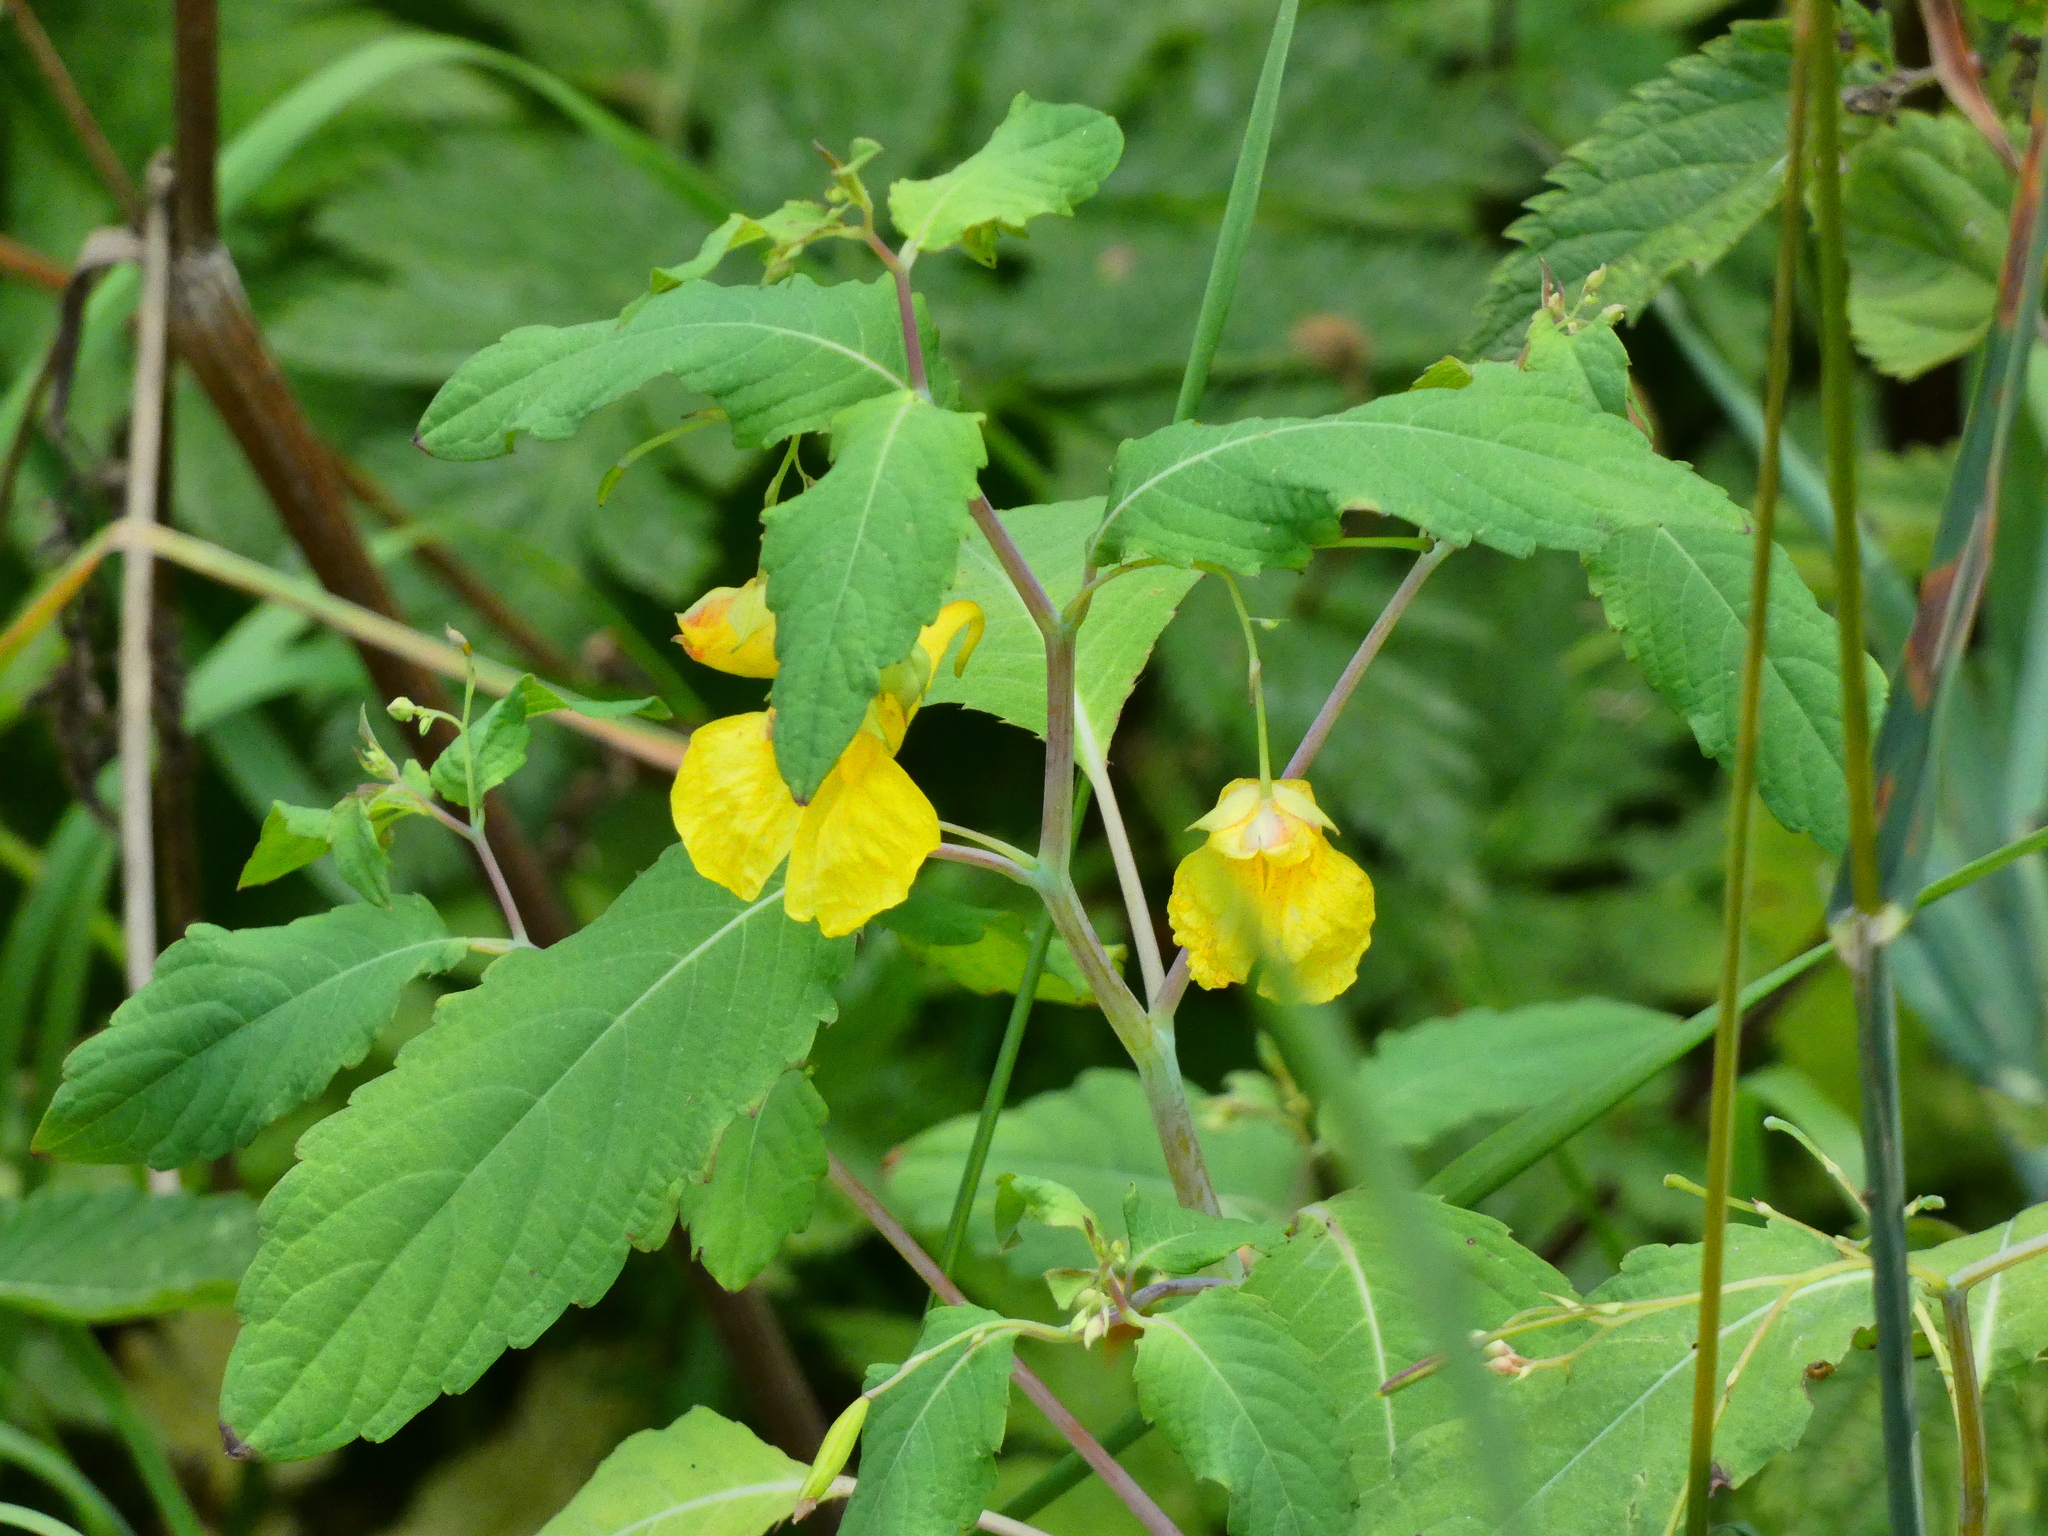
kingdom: Plantae
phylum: Tracheophyta
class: Magnoliopsida
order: Ericales
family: Balsaminaceae
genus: Impatiens
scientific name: Impatiens noli-tangere
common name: Touch-me-not balsam
